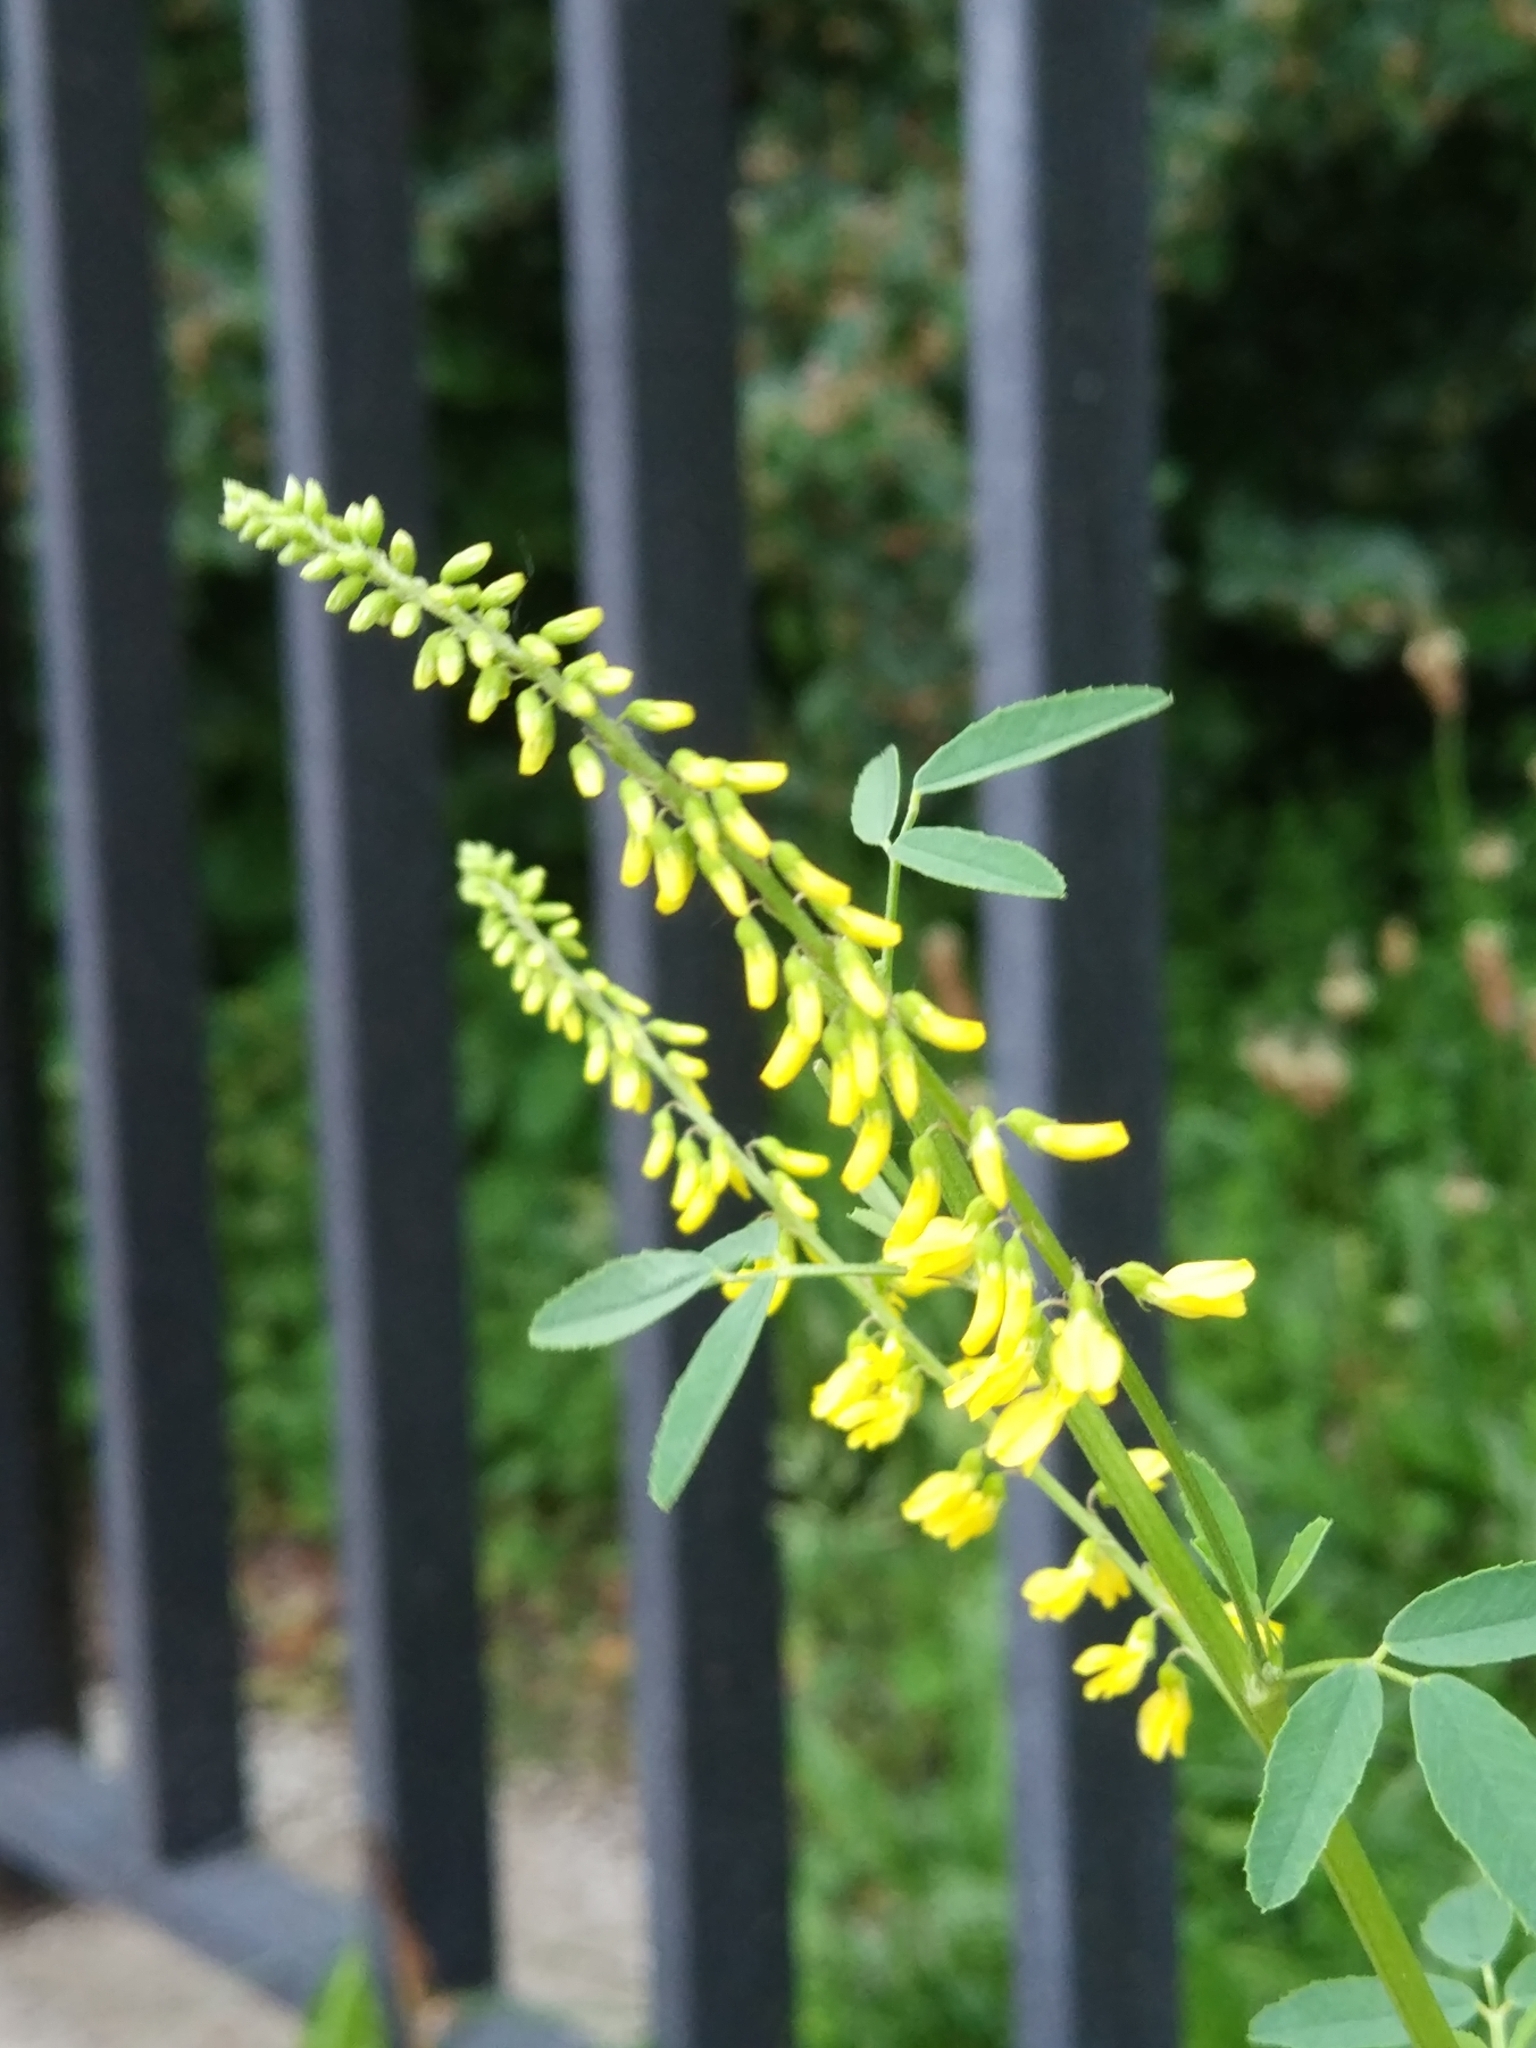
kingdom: Plantae
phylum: Tracheophyta
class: Magnoliopsida
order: Fabales
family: Fabaceae
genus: Melilotus
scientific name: Melilotus officinalis
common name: Sweetclover
